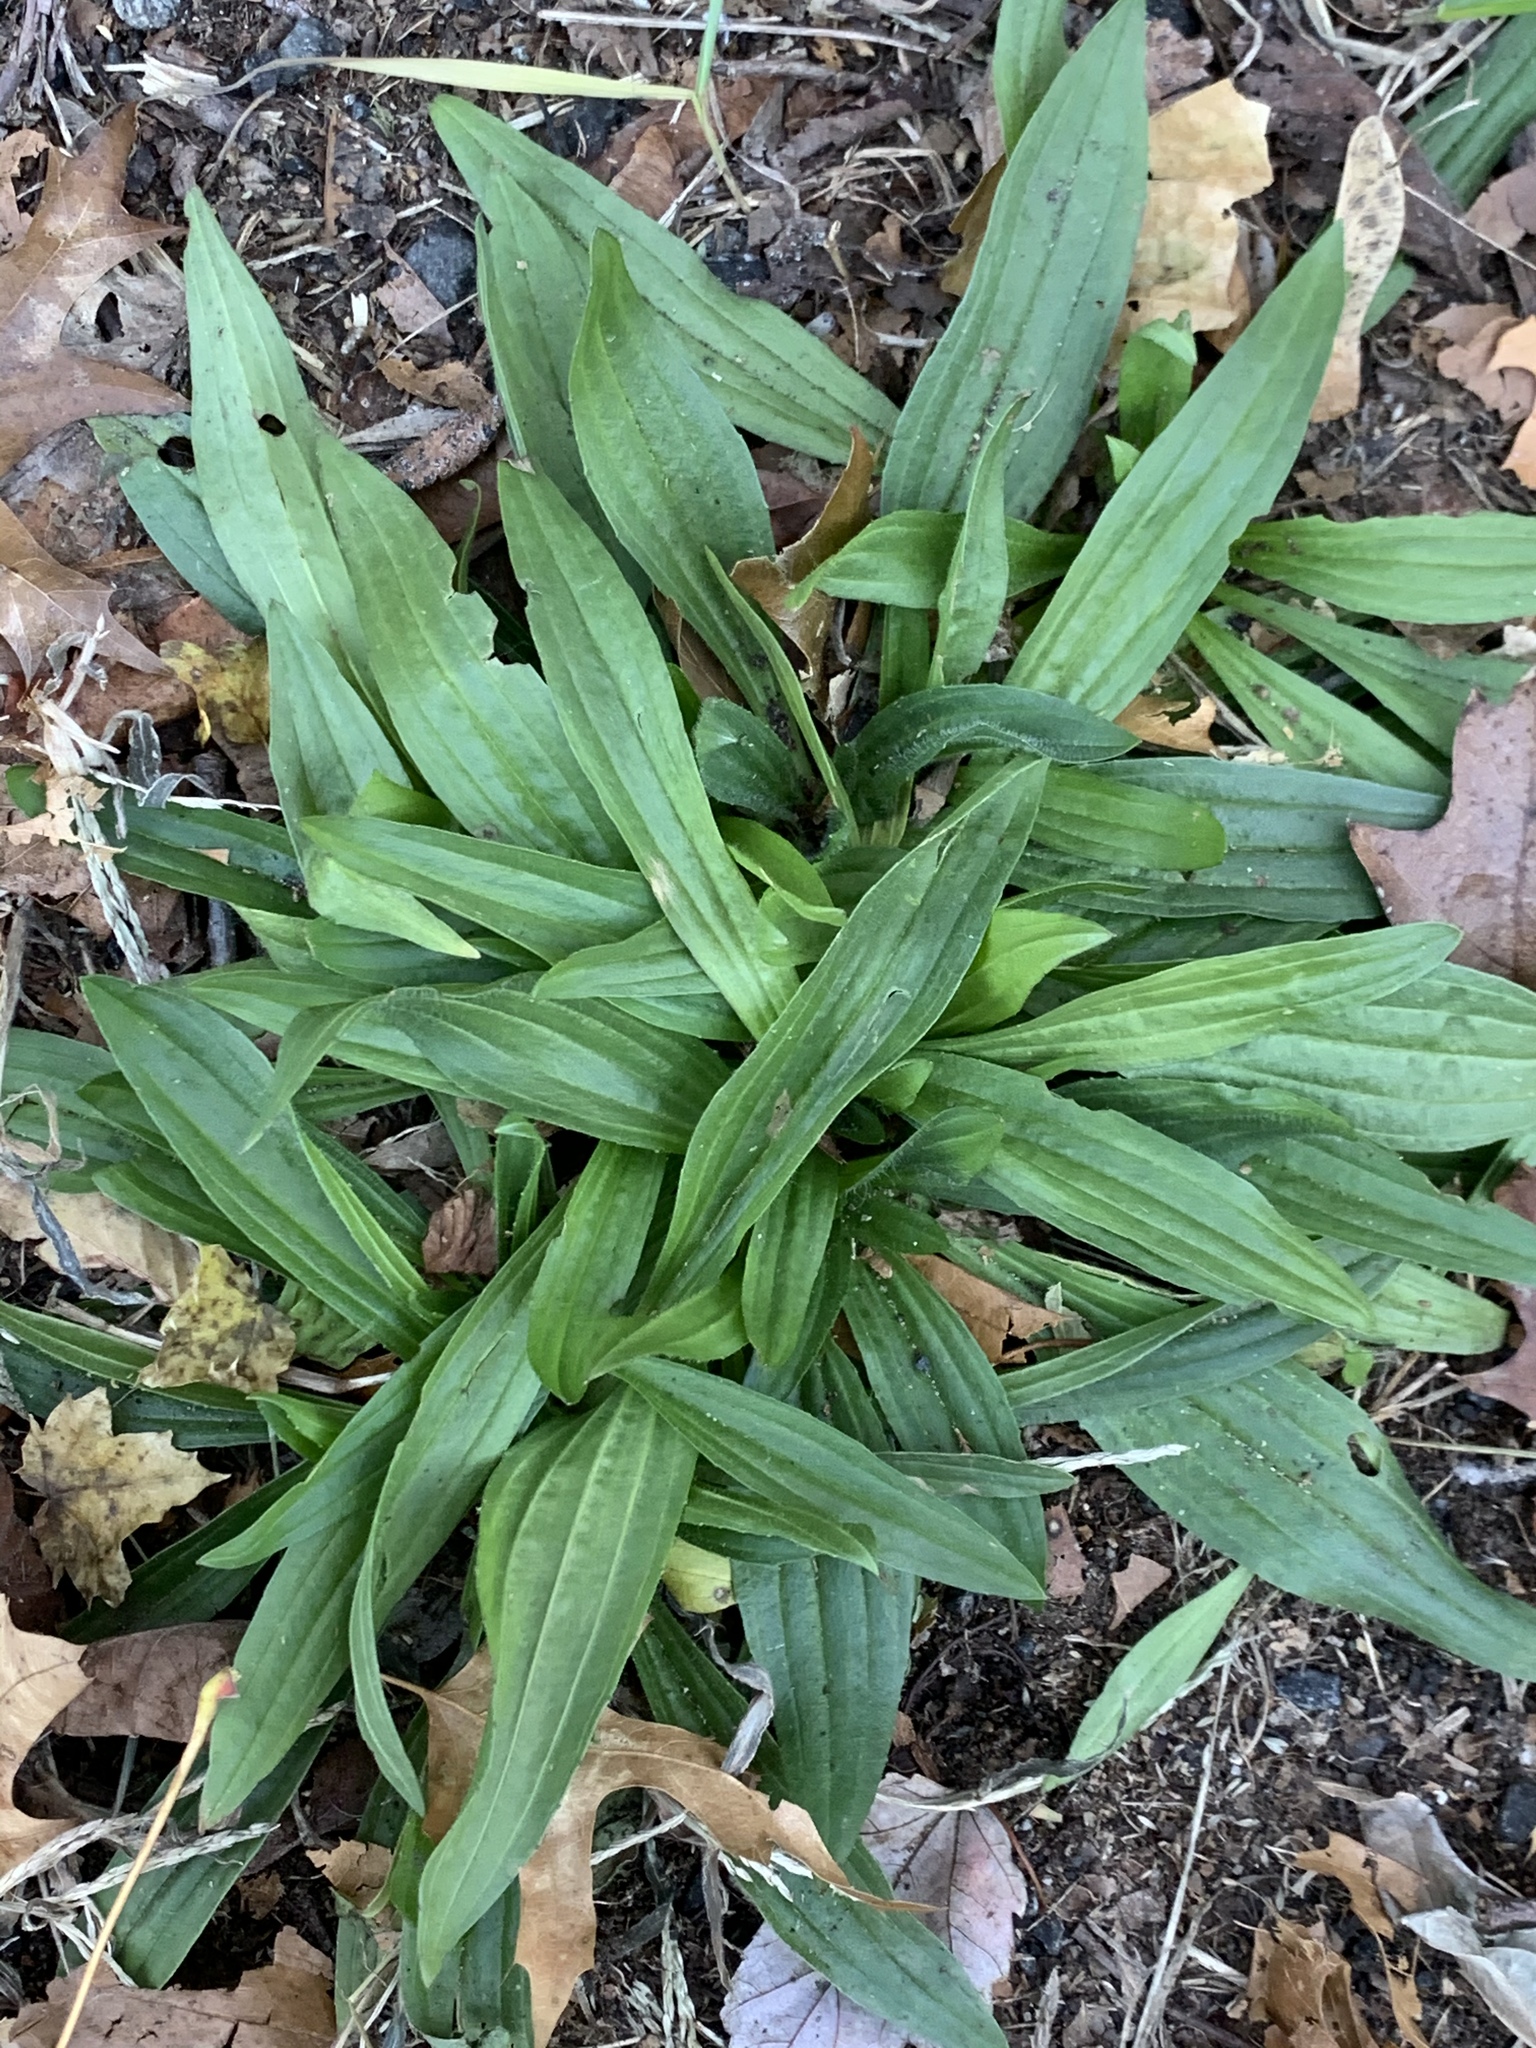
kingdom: Plantae
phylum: Tracheophyta
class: Magnoliopsida
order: Lamiales
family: Plantaginaceae
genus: Plantago
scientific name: Plantago lanceolata
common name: Ribwort plantain
